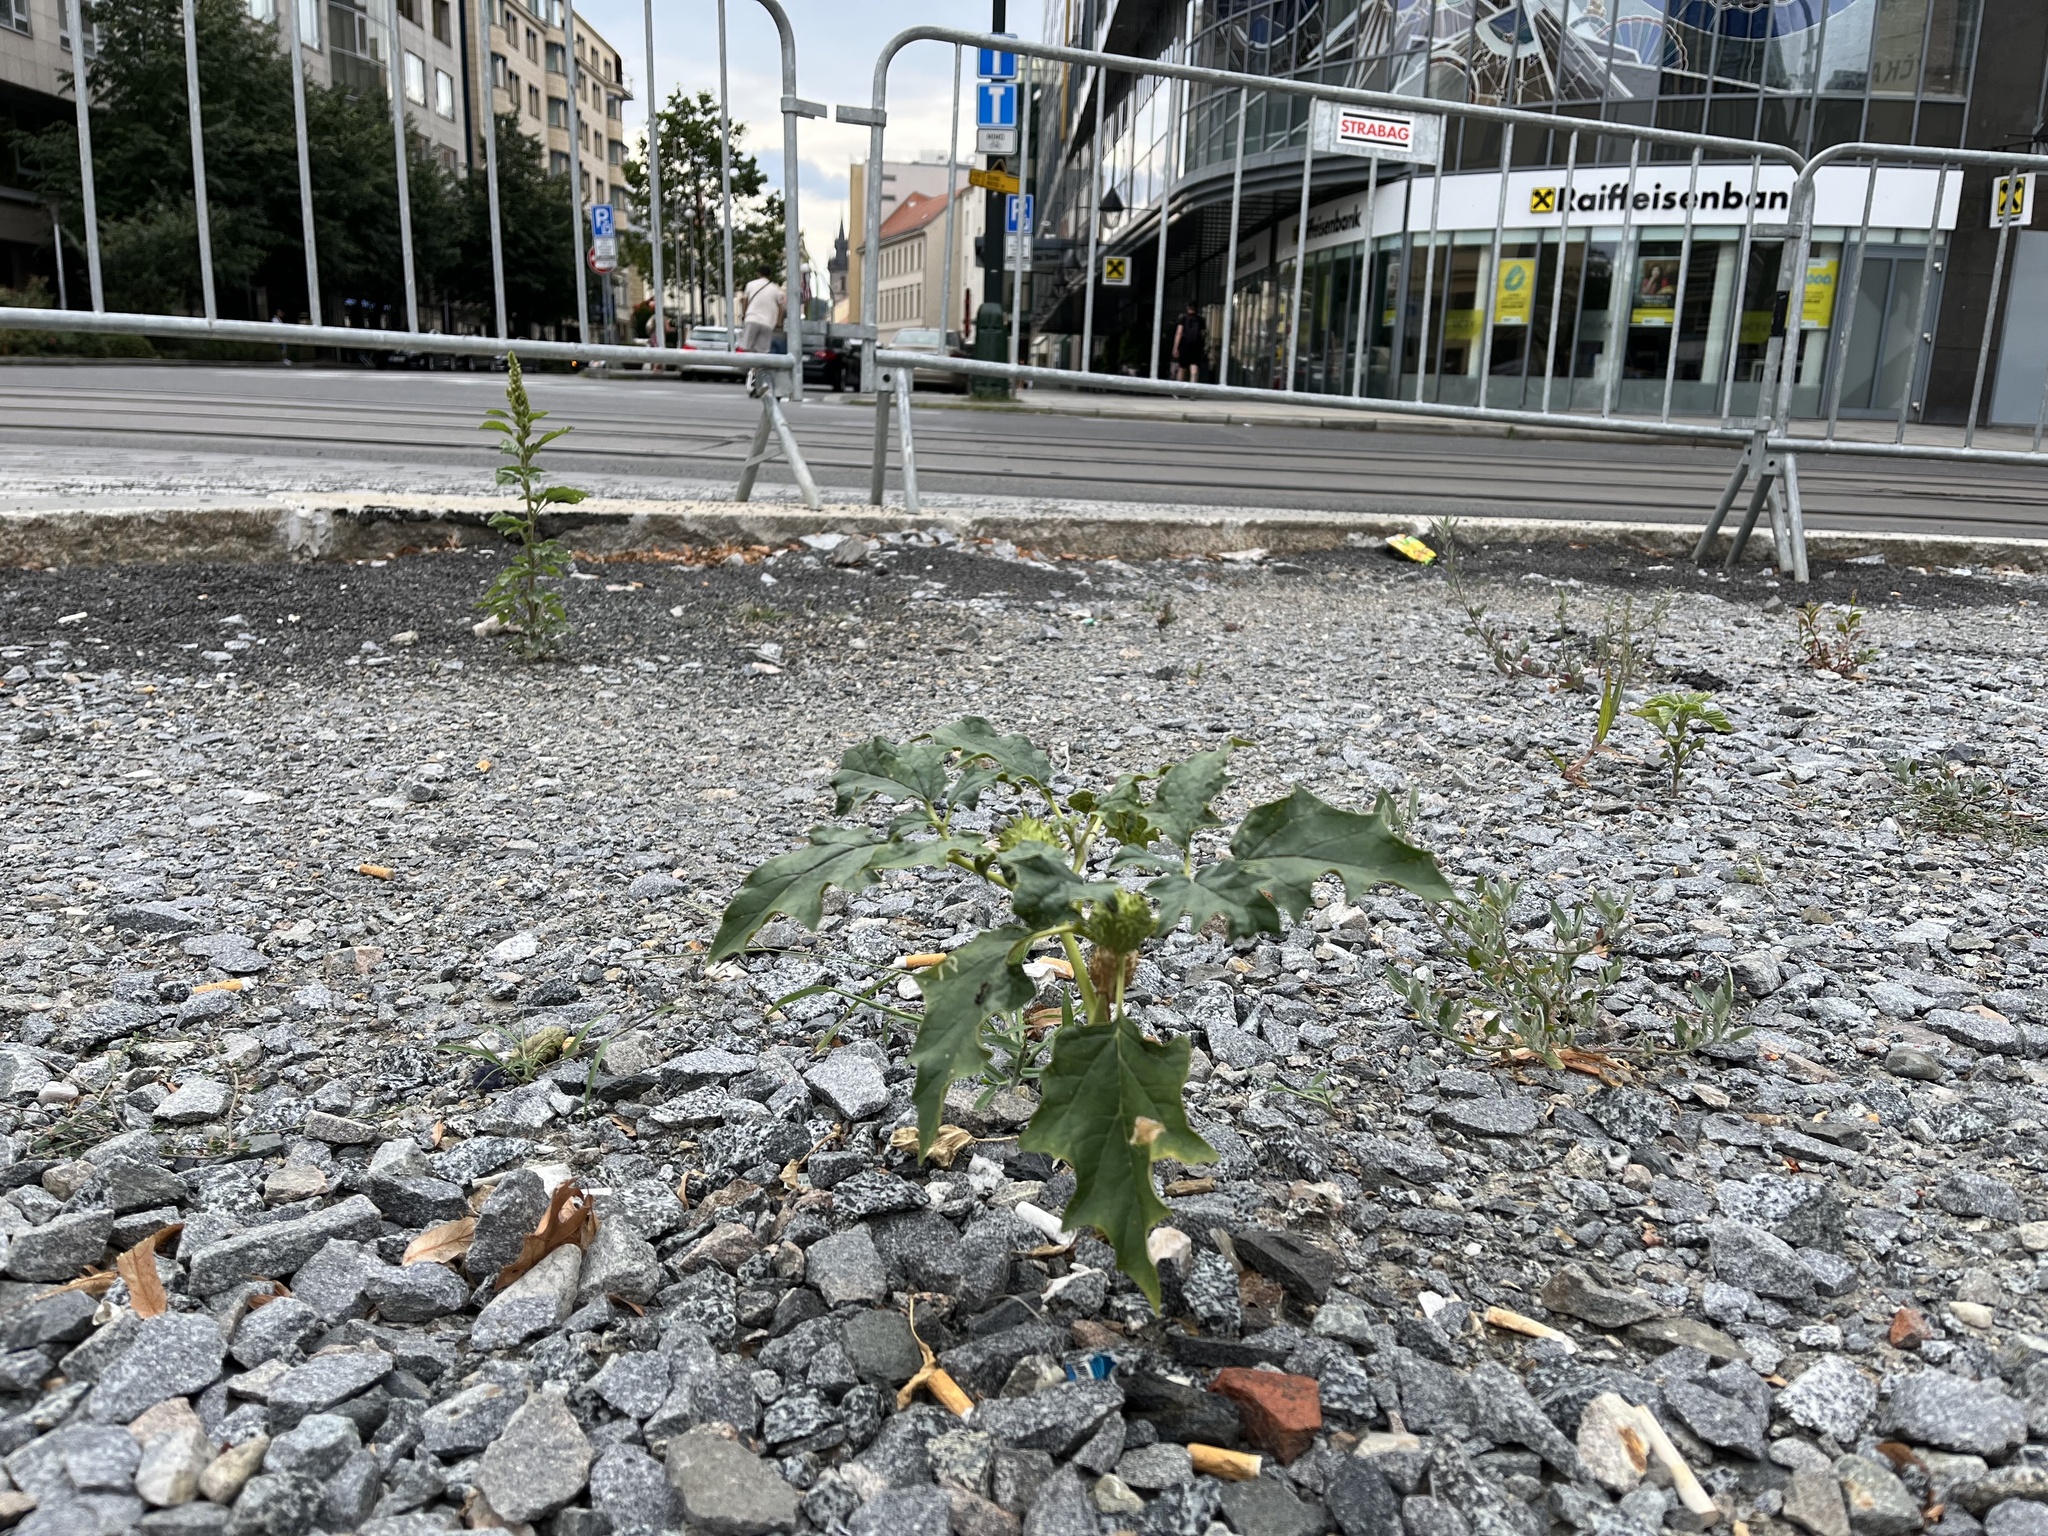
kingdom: Plantae
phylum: Tracheophyta
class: Magnoliopsida
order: Solanales
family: Solanaceae
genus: Datura
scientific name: Datura stramonium
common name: Thorn-apple
